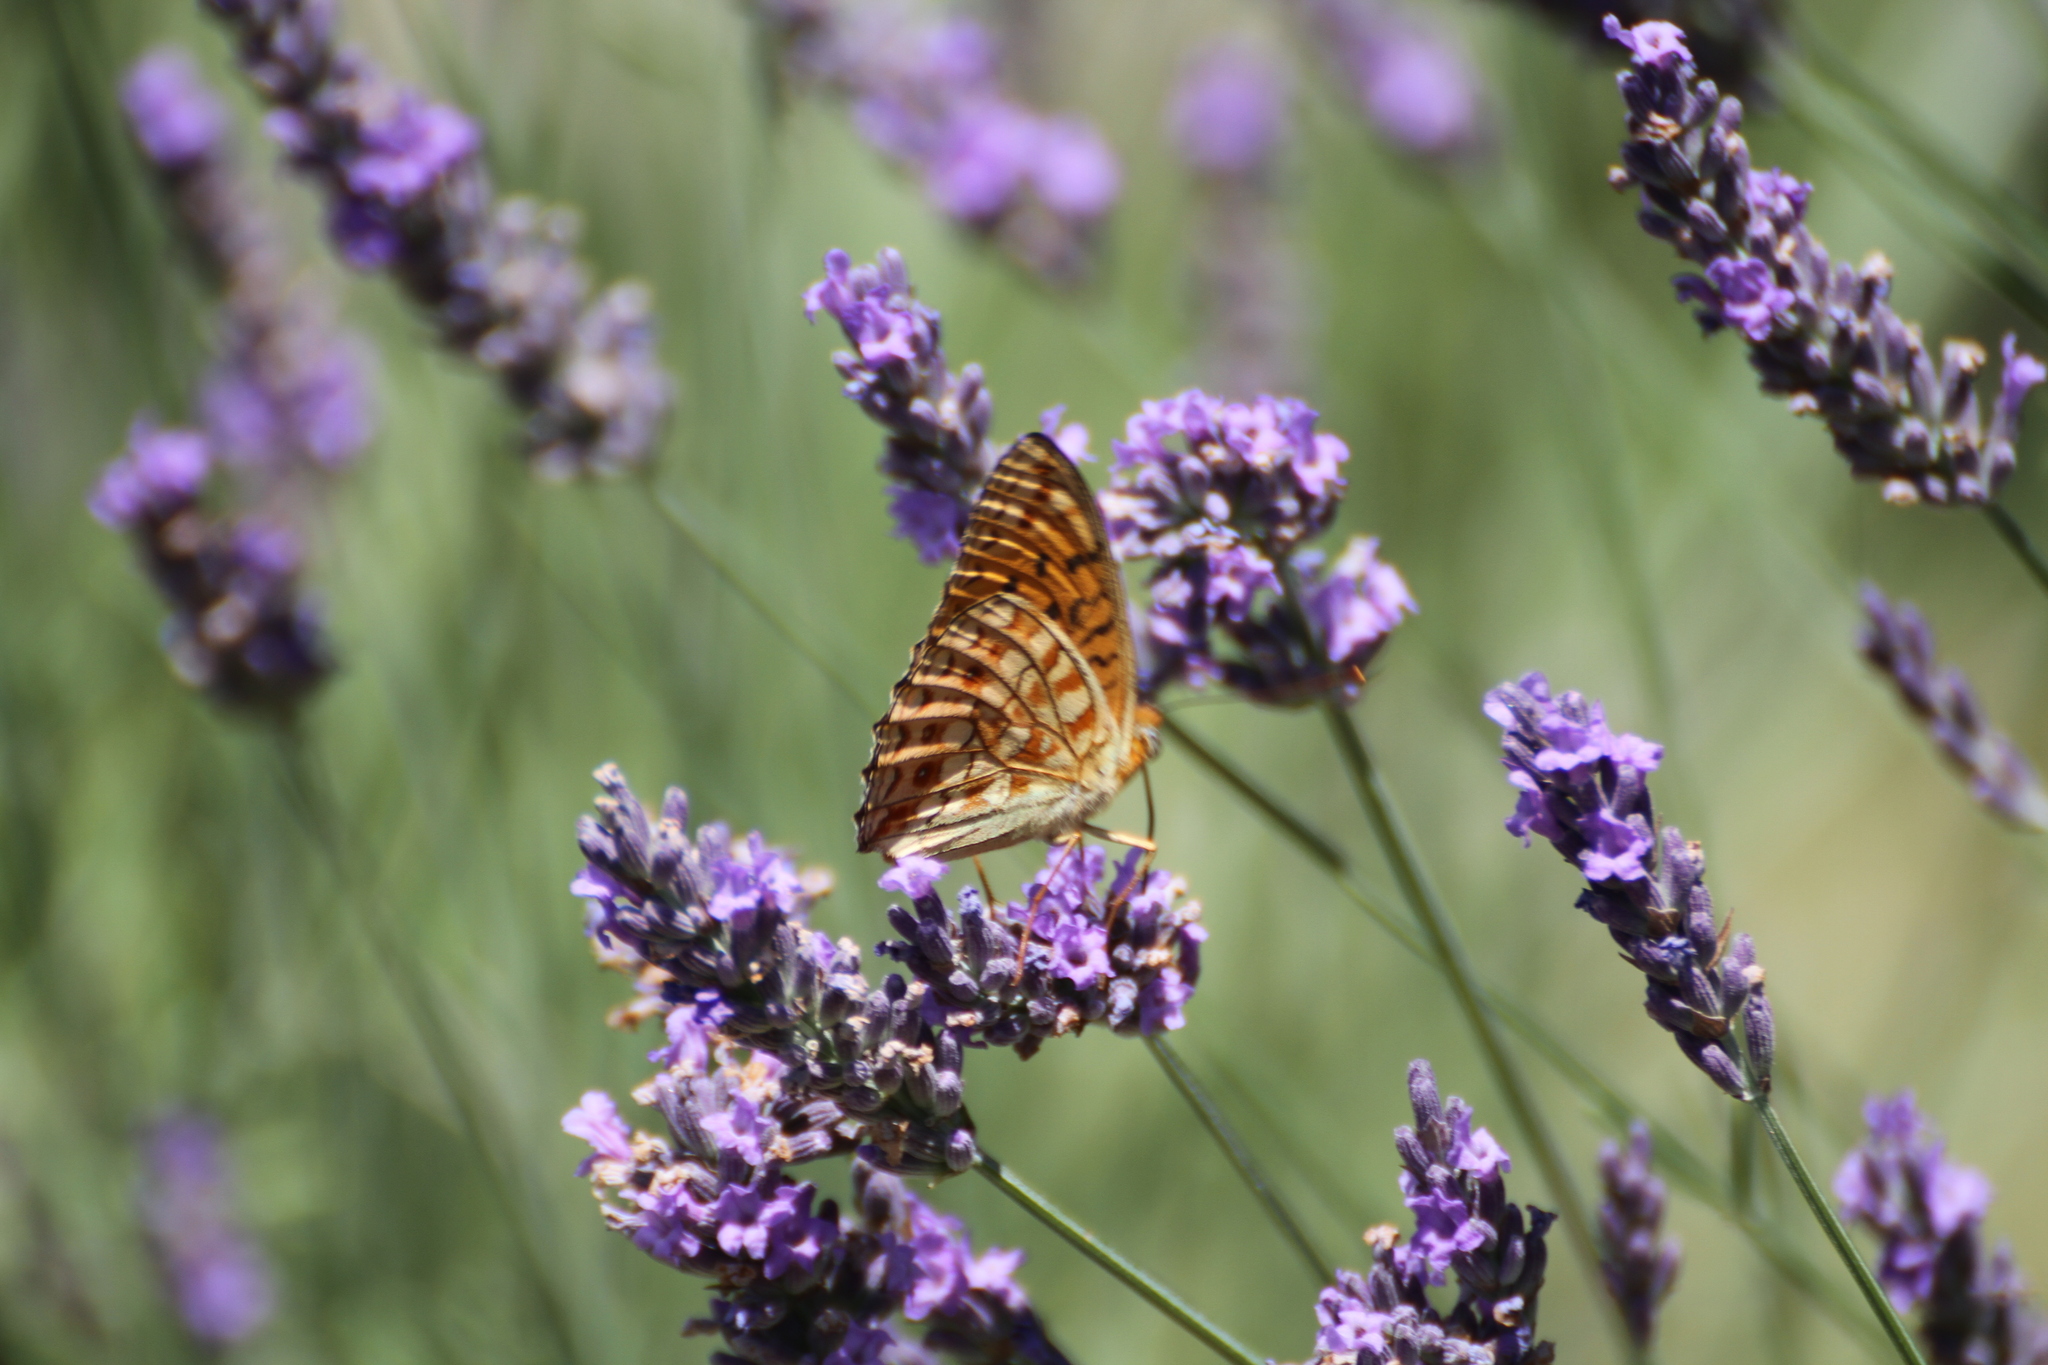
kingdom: Animalia
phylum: Arthropoda
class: Insecta
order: Lepidoptera
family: Nymphalidae
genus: Fabriciana
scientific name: Fabriciana niobe
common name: Niobe fritillary
